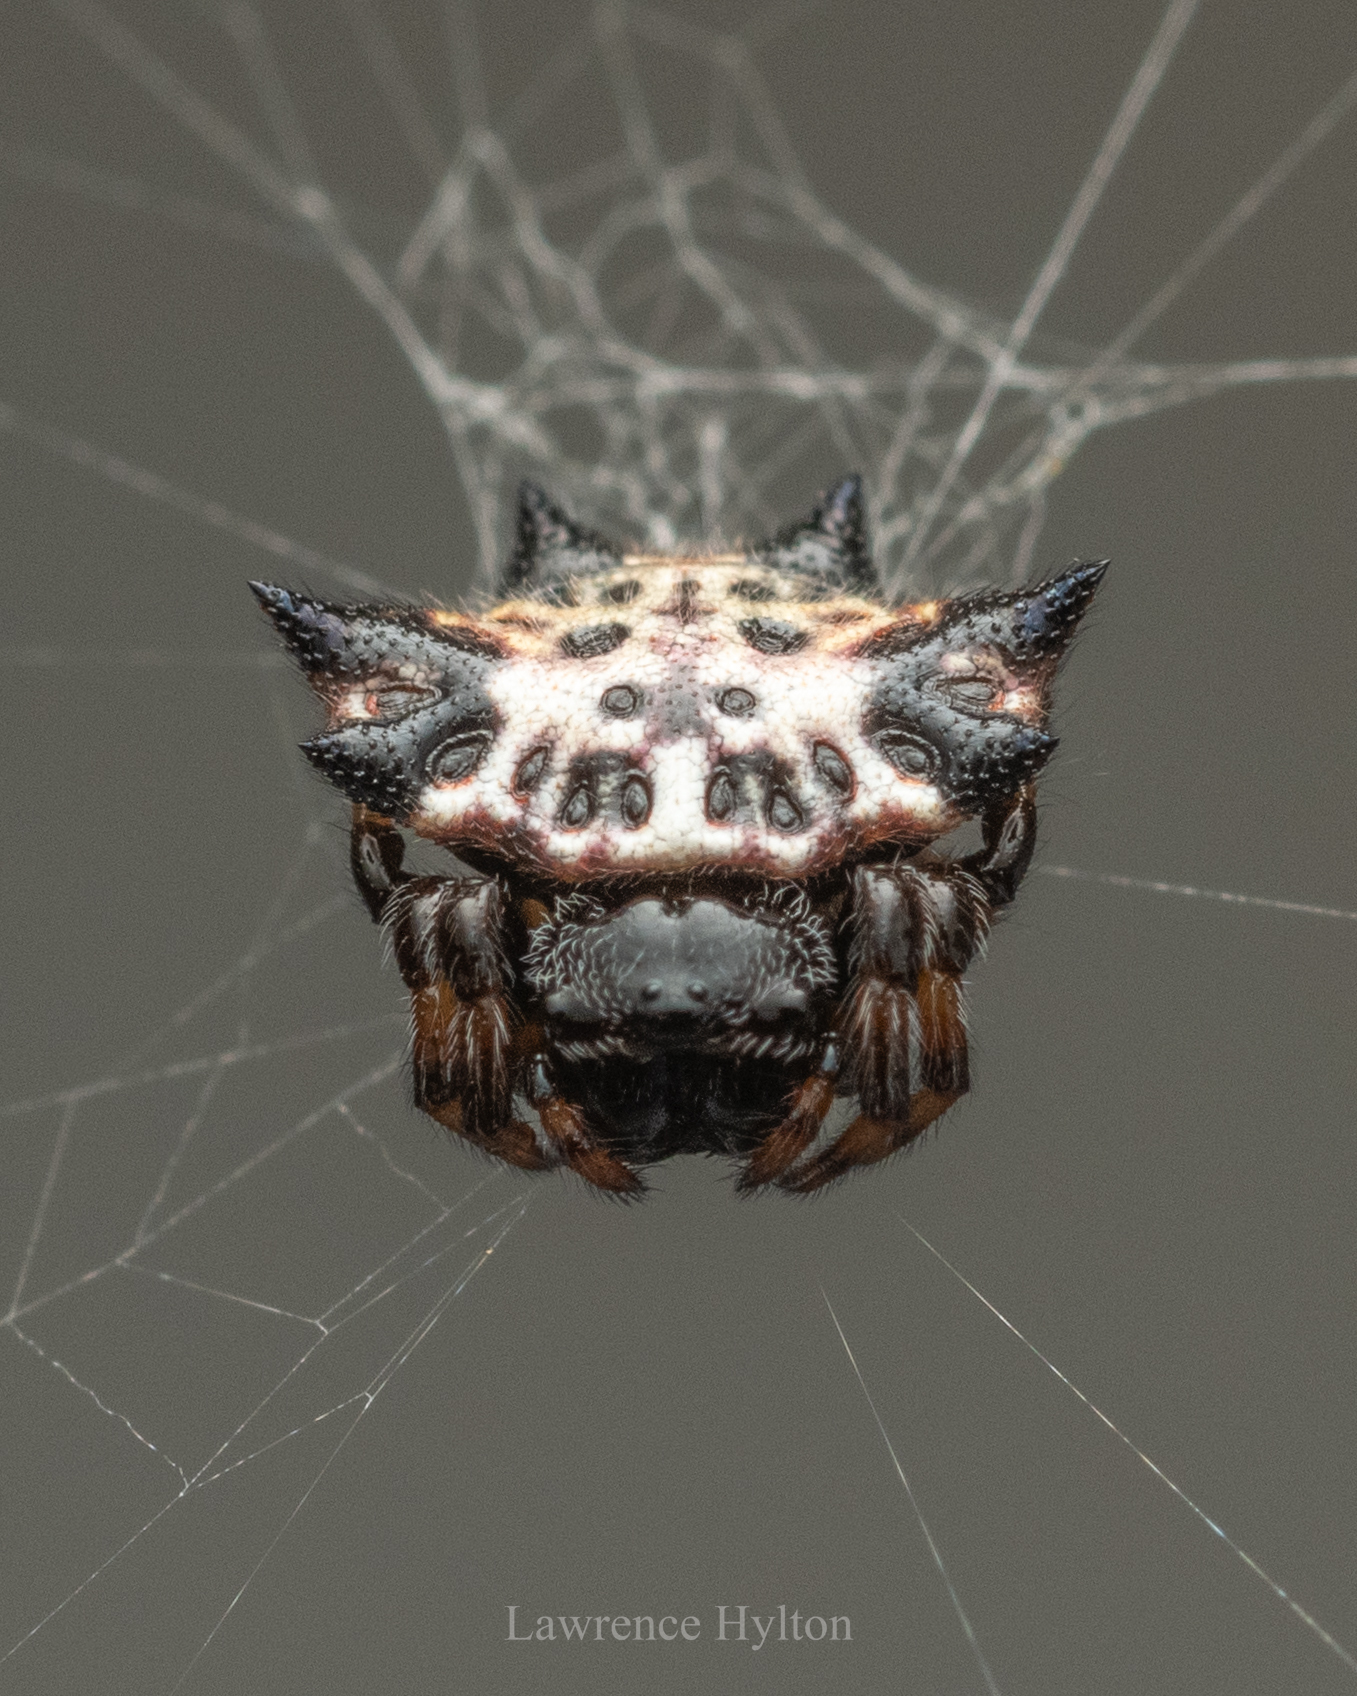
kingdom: Animalia
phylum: Arthropoda
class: Arachnida
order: Araneae
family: Araneidae
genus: Gasteracantha
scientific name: Gasteracantha kuhli
